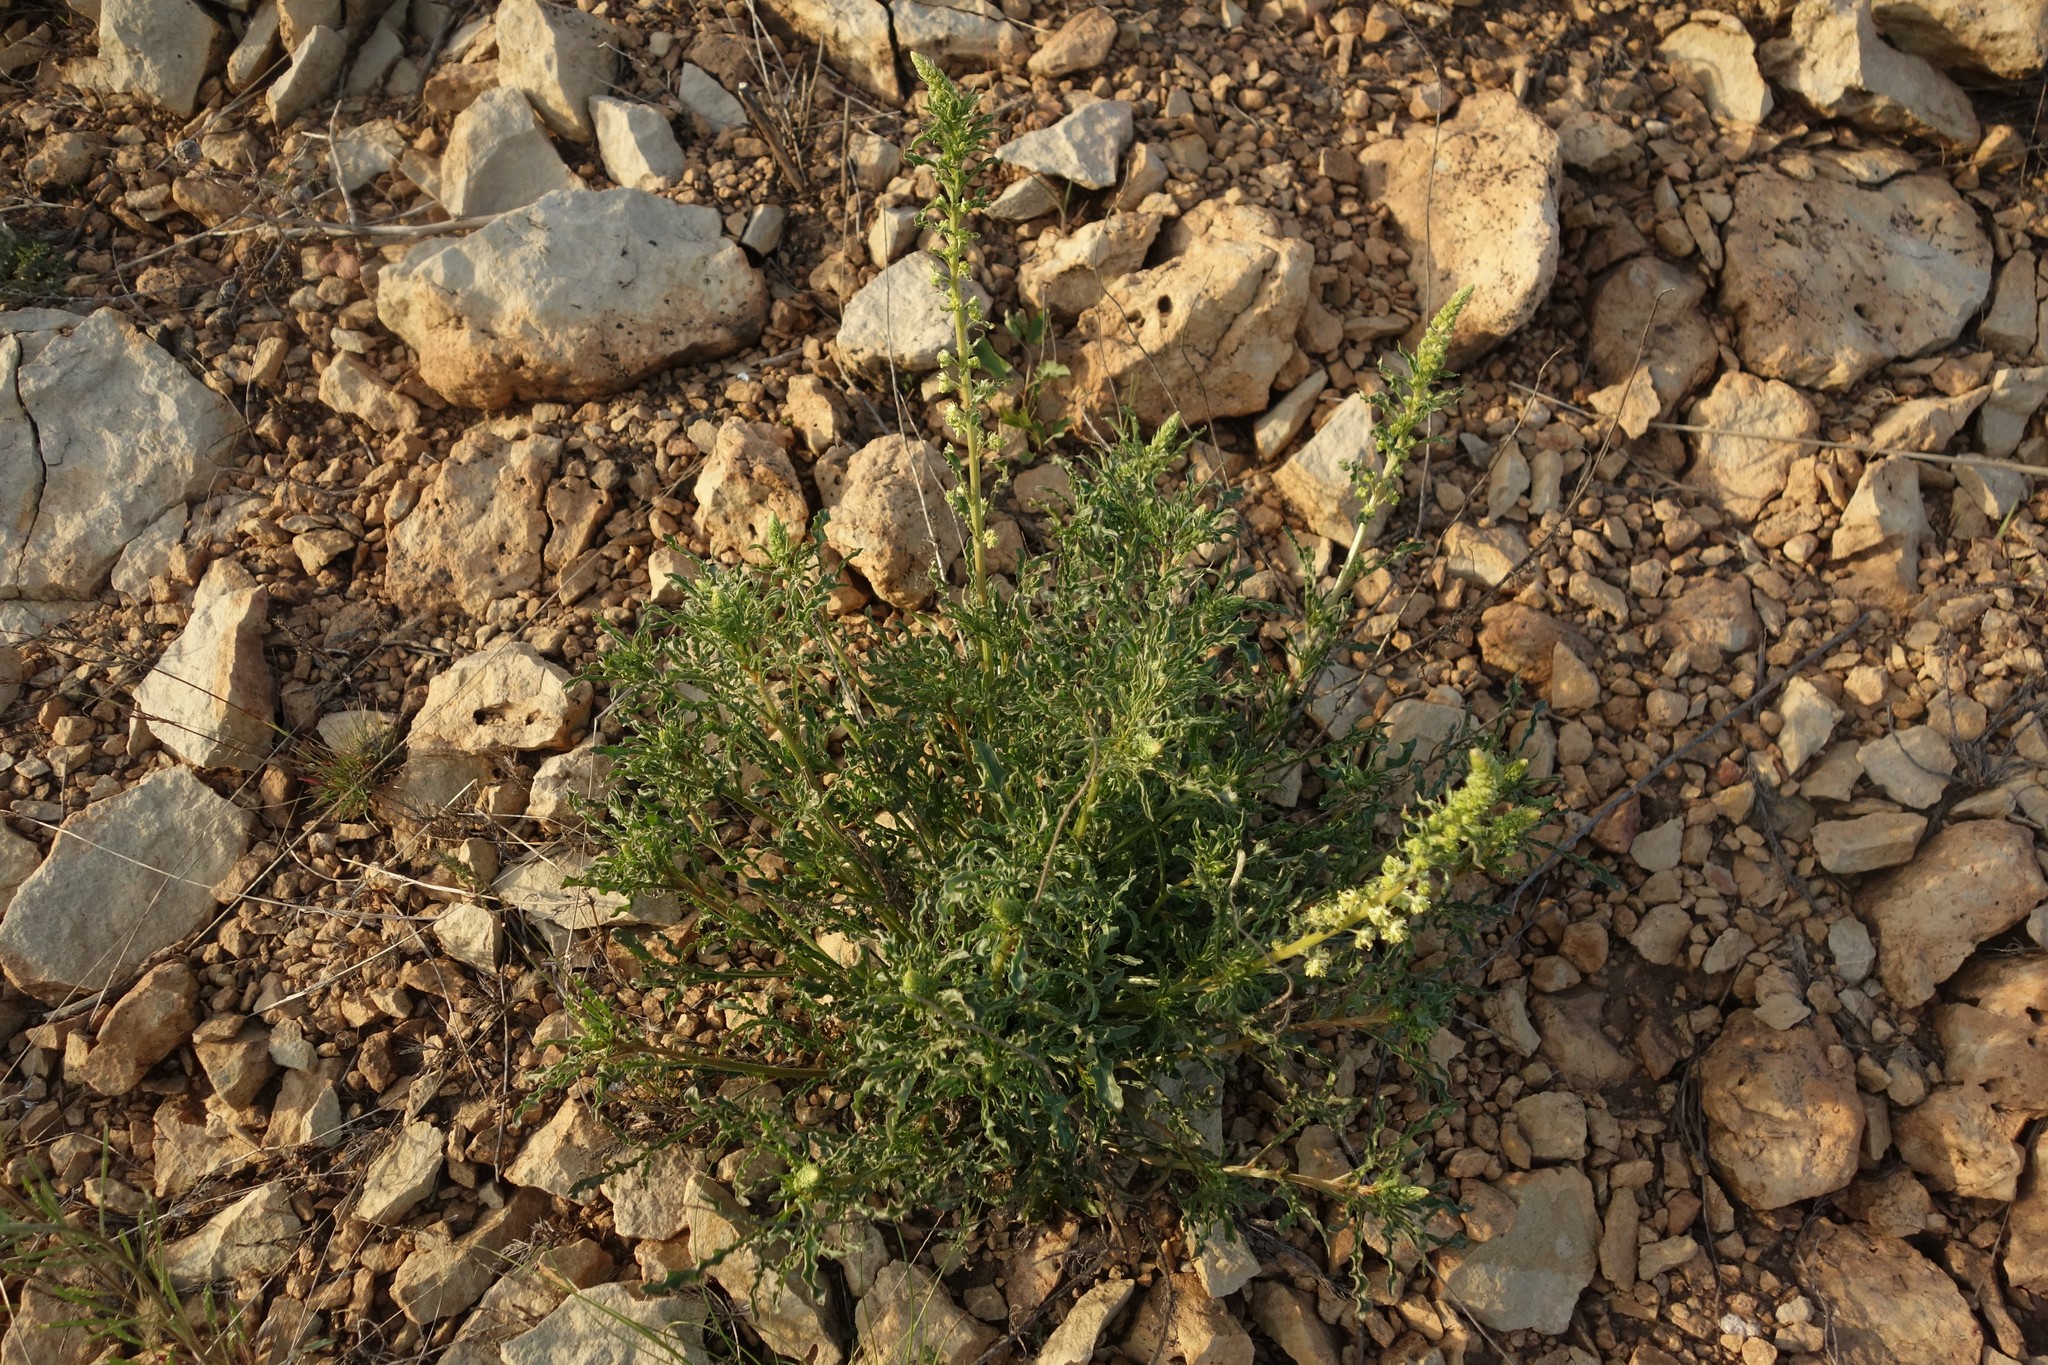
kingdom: Plantae
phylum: Tracheophyta
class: Magnoliopsida
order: Brassicales
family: Resedaceae
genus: Reseda
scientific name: Reseda lutea
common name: Wild mignonette
